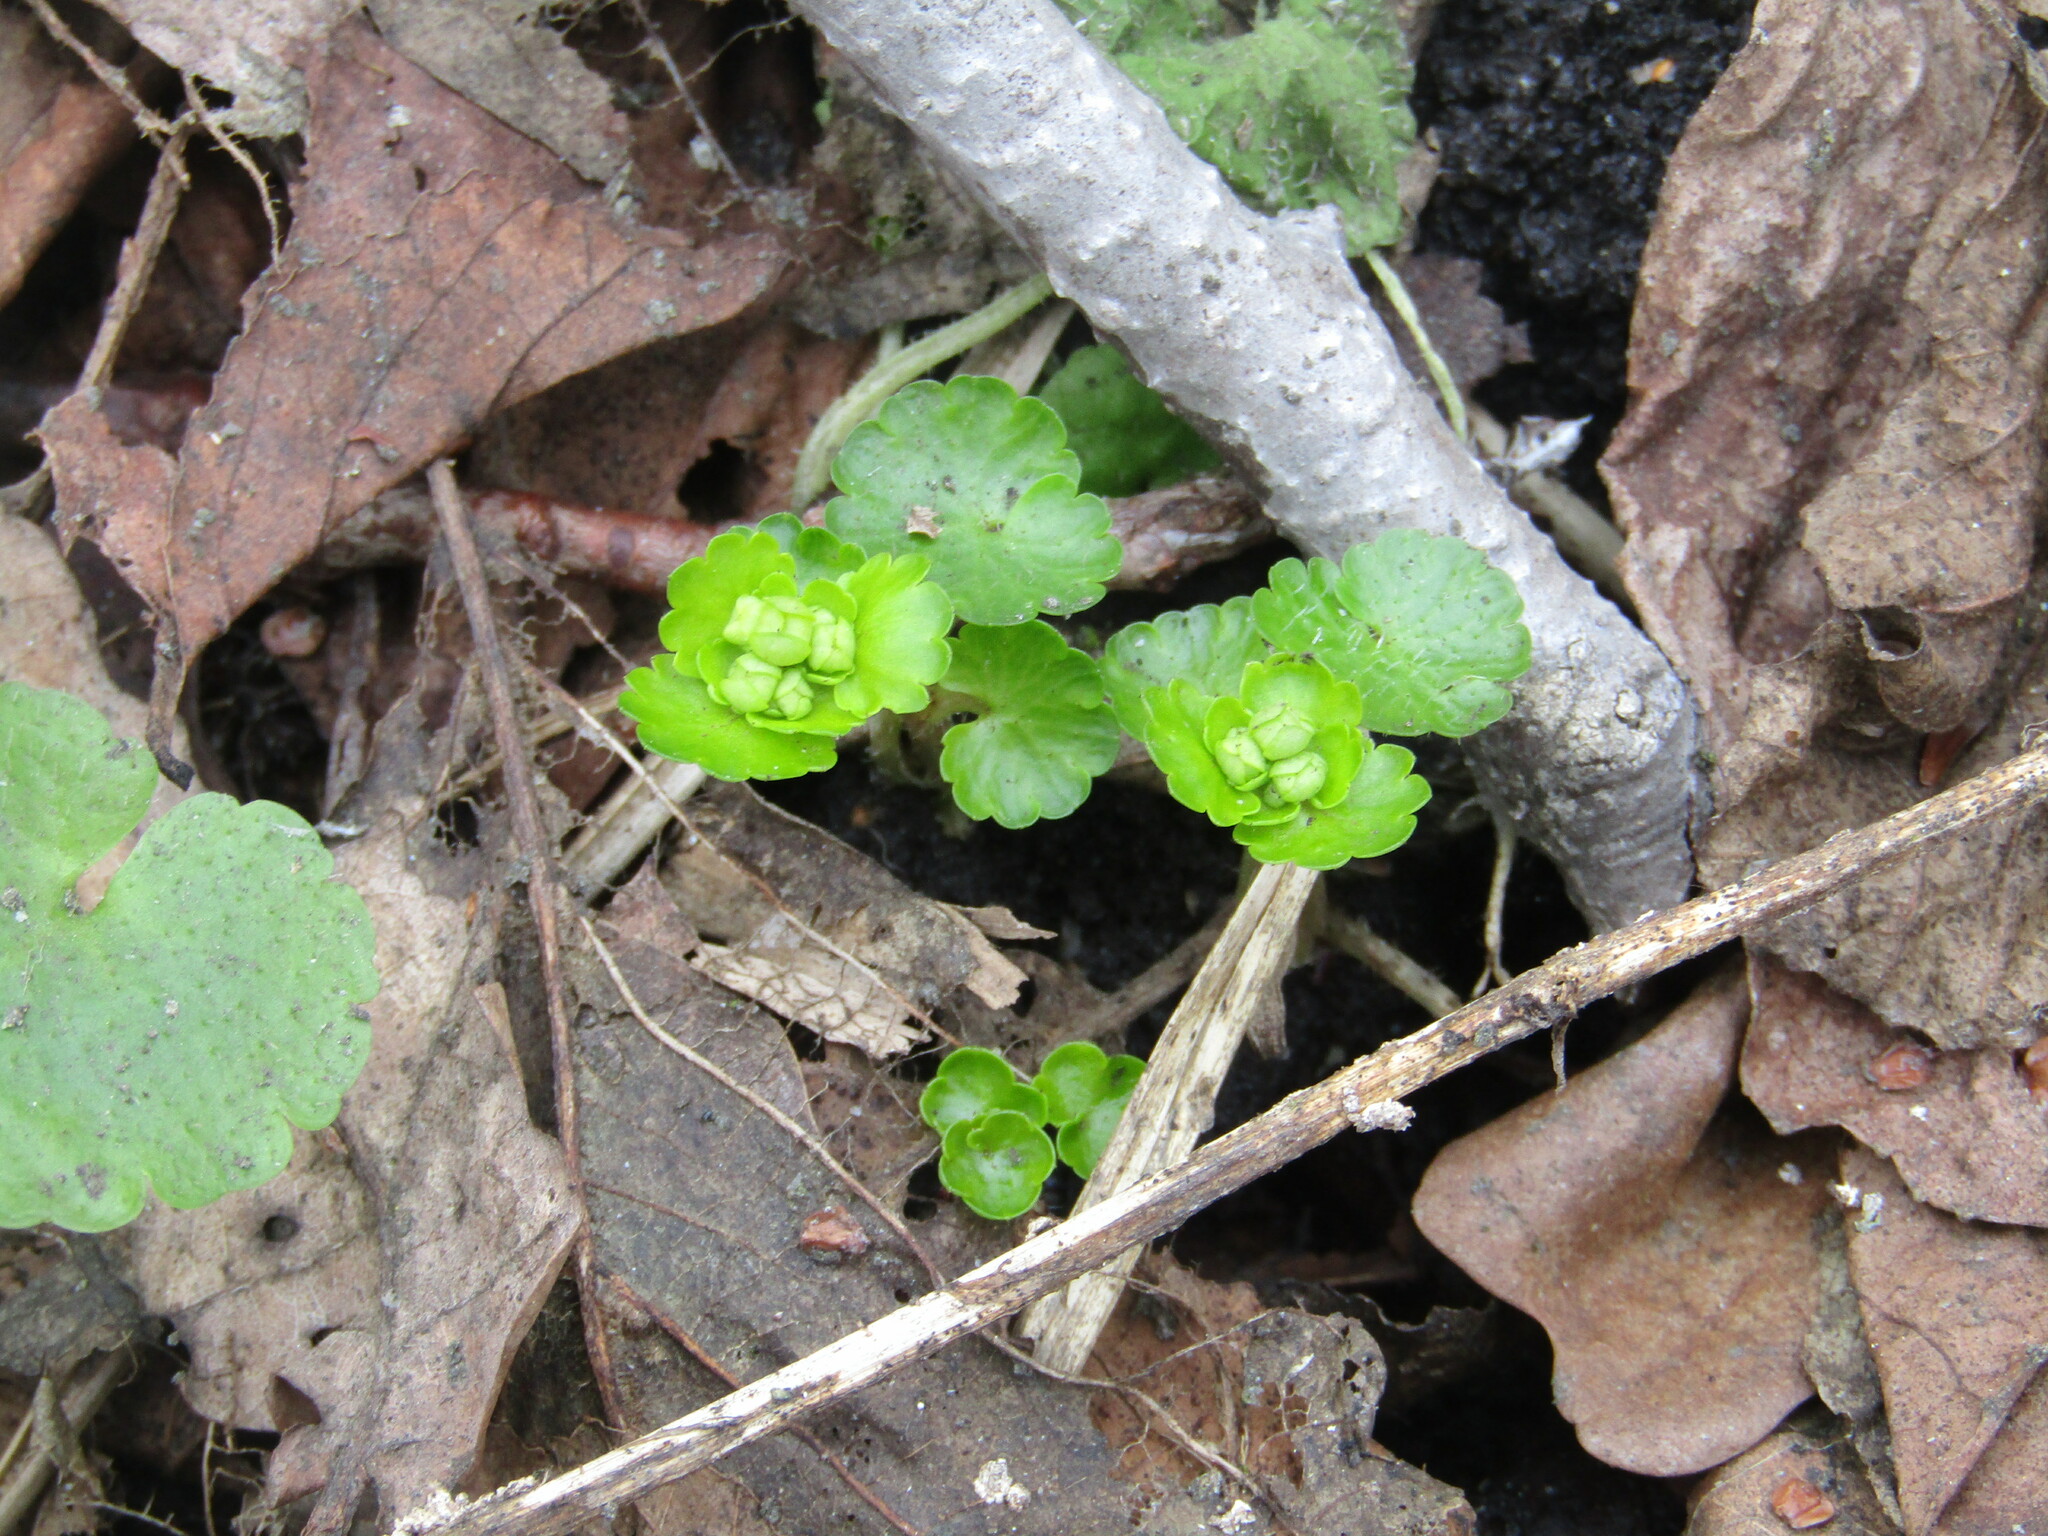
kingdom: Plantae
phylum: Tracheophyta
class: Magnoliopsida
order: Saxifragales
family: Saxifragaceae
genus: Chrysosplenium
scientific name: Chrysosplenium alternifolium
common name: Alternate-leaved golden-saxifrage
